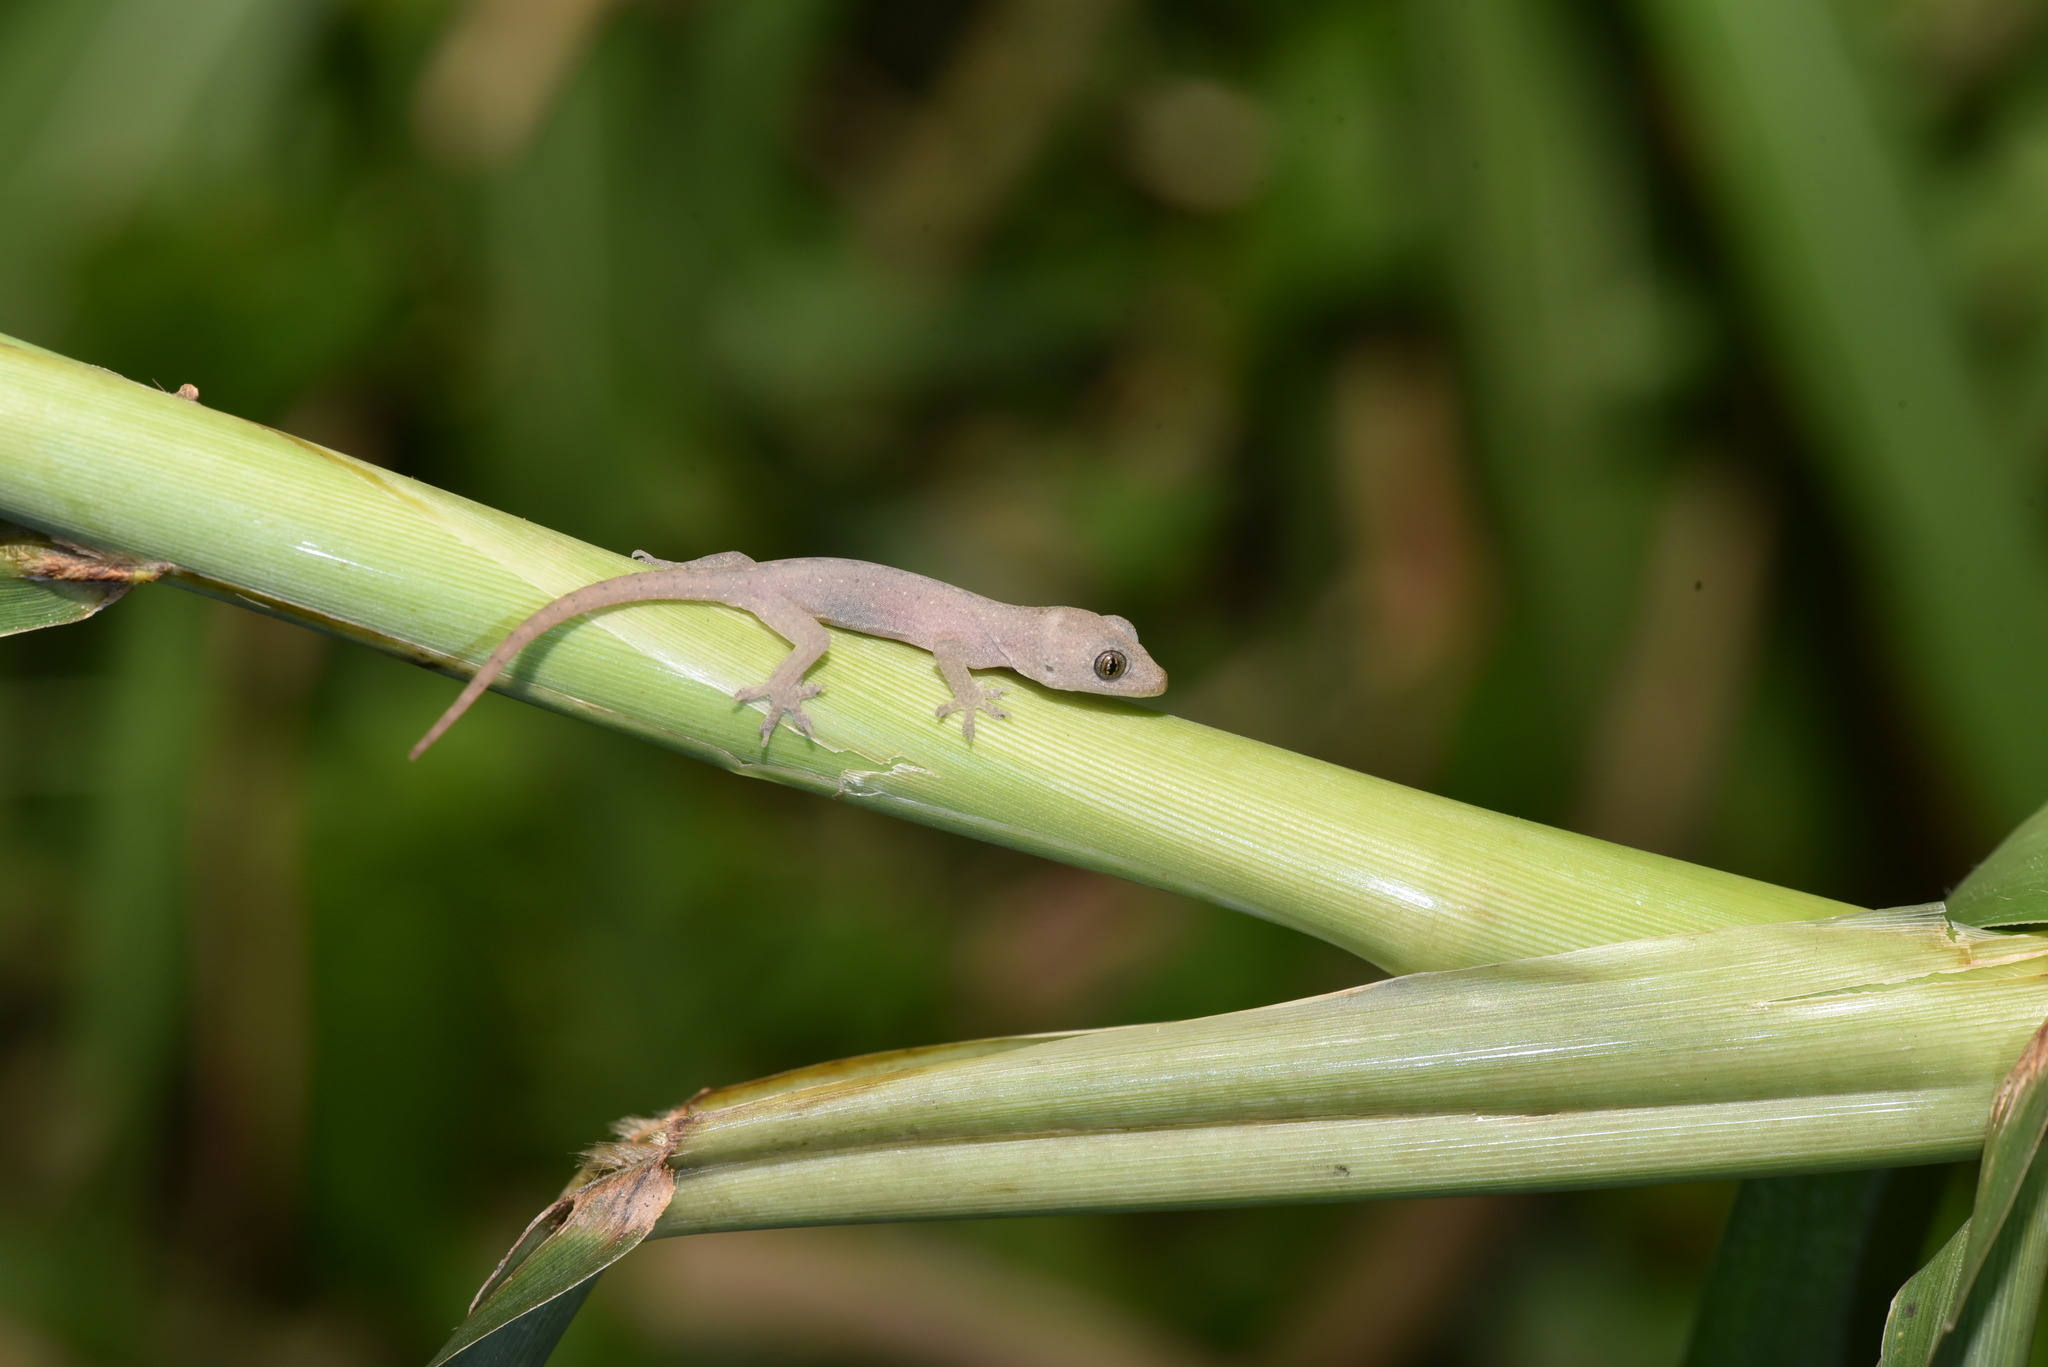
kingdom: Animalia
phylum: Chordata
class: Squamata
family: Gekkonidae
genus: Hemidactylus
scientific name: Hemidactylus frenatus
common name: Common house gecko
